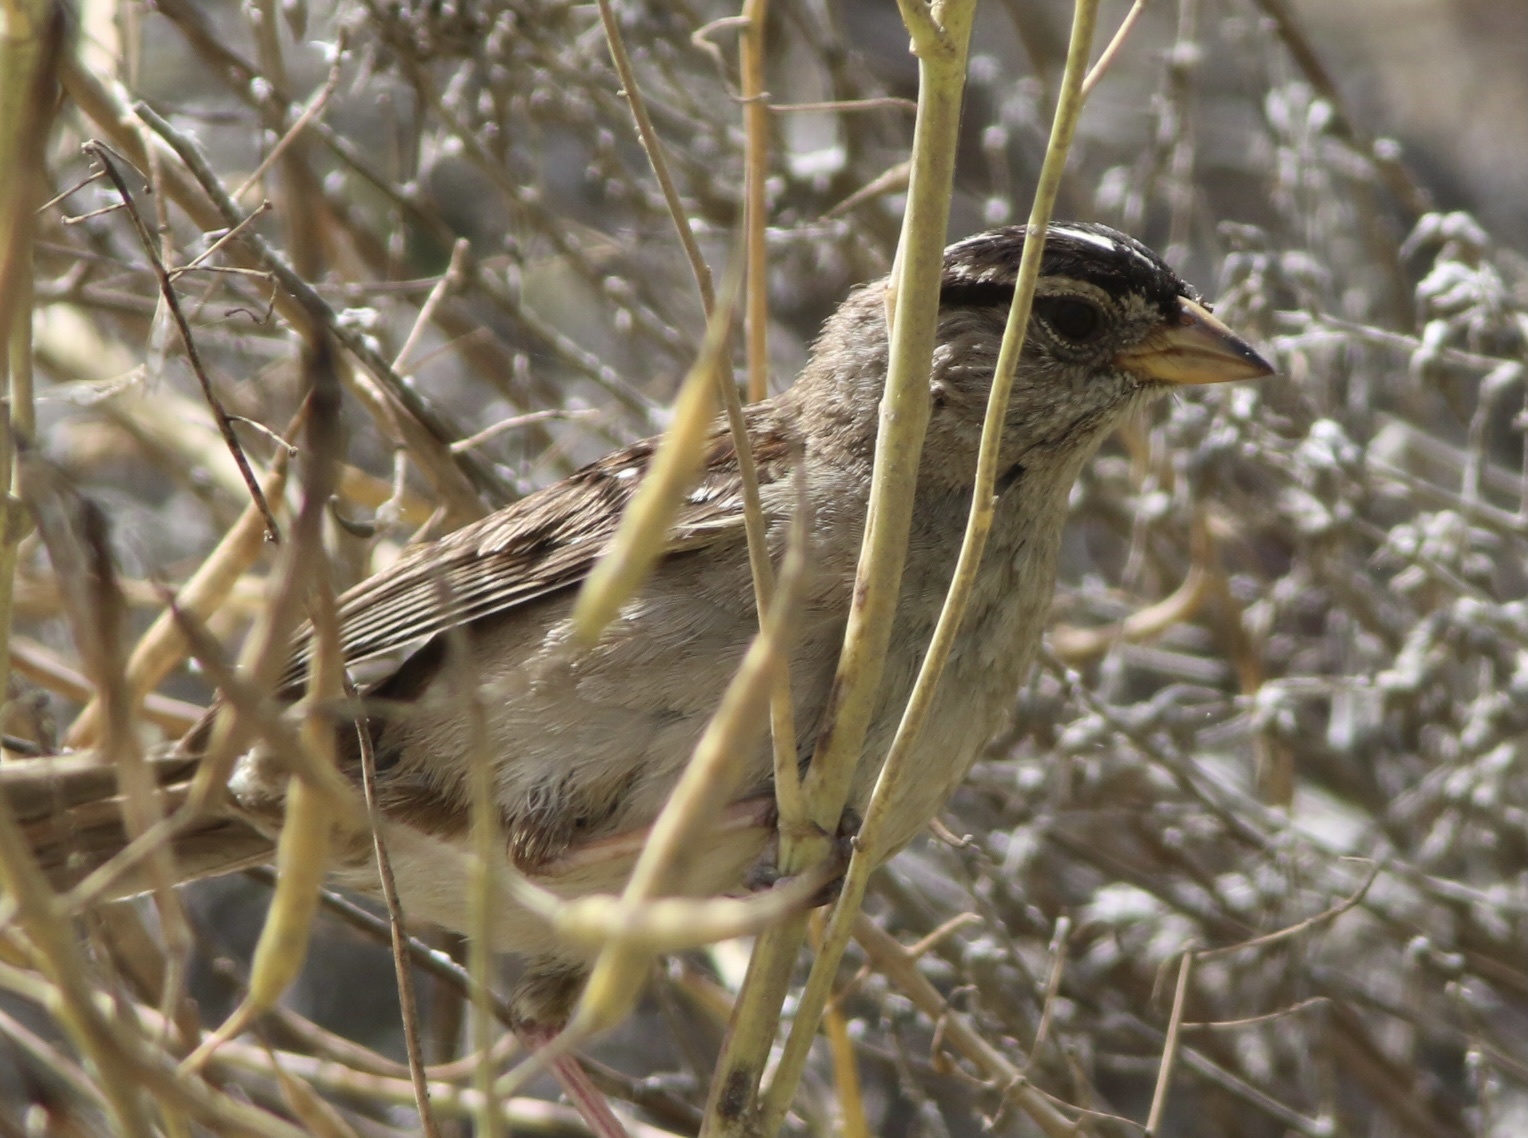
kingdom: Animalia
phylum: Chordata
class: Aves
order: Passeriformes
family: Passerellidae
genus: Zonotrichia
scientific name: Zonotrichia leucophrys
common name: White-crowned sparrow
